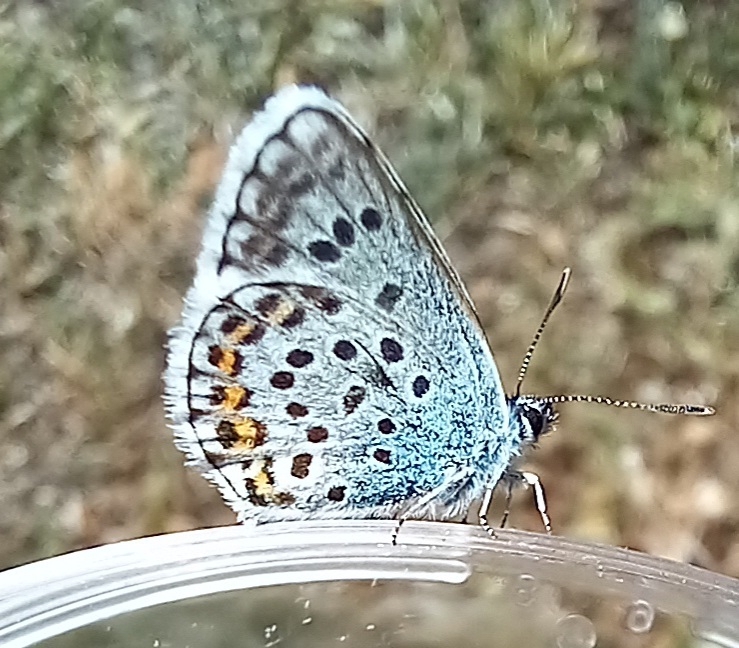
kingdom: Animalia
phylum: Arthropoda
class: Insecta
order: Lepidoptera
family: Lycaenidae
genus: Plebejus
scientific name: Plebejus argus
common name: Silver-studded blue
